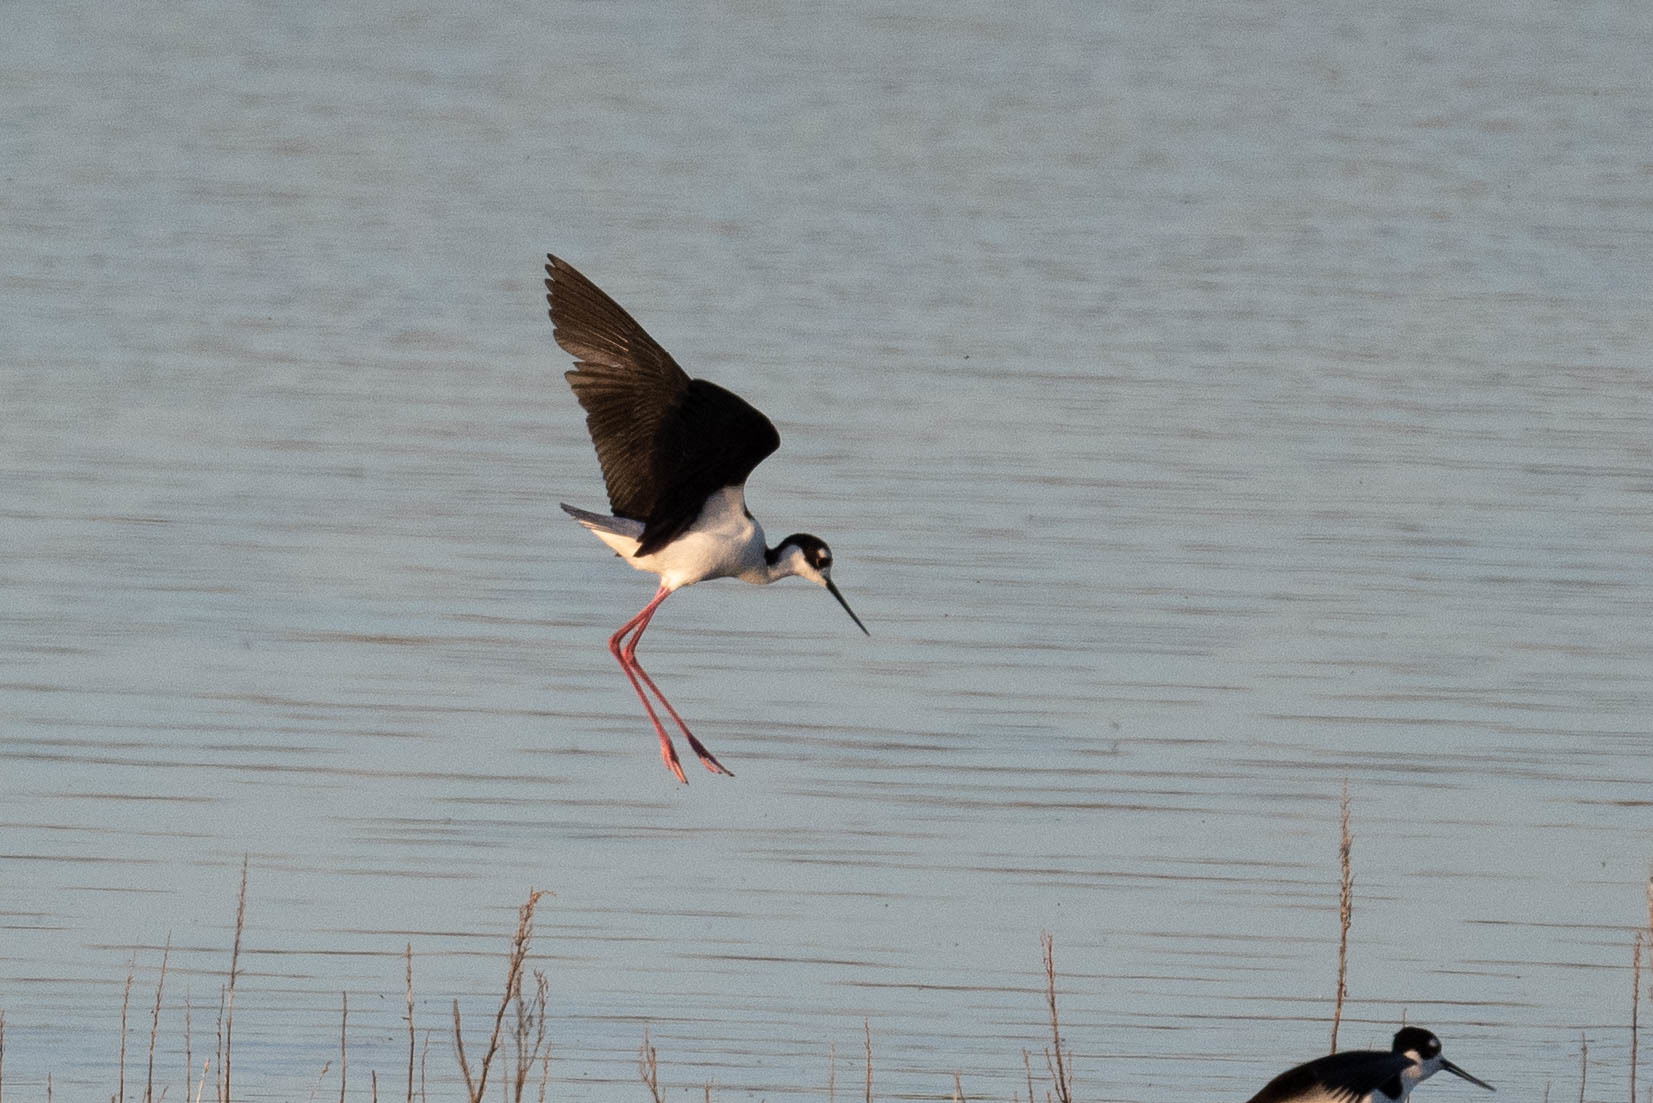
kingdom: Animalia
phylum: Chordata
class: Aves
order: Charadriiformes
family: Recurvirostridae
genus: Himantopus
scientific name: Himantopus mexicanus
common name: Black-necked stilt
